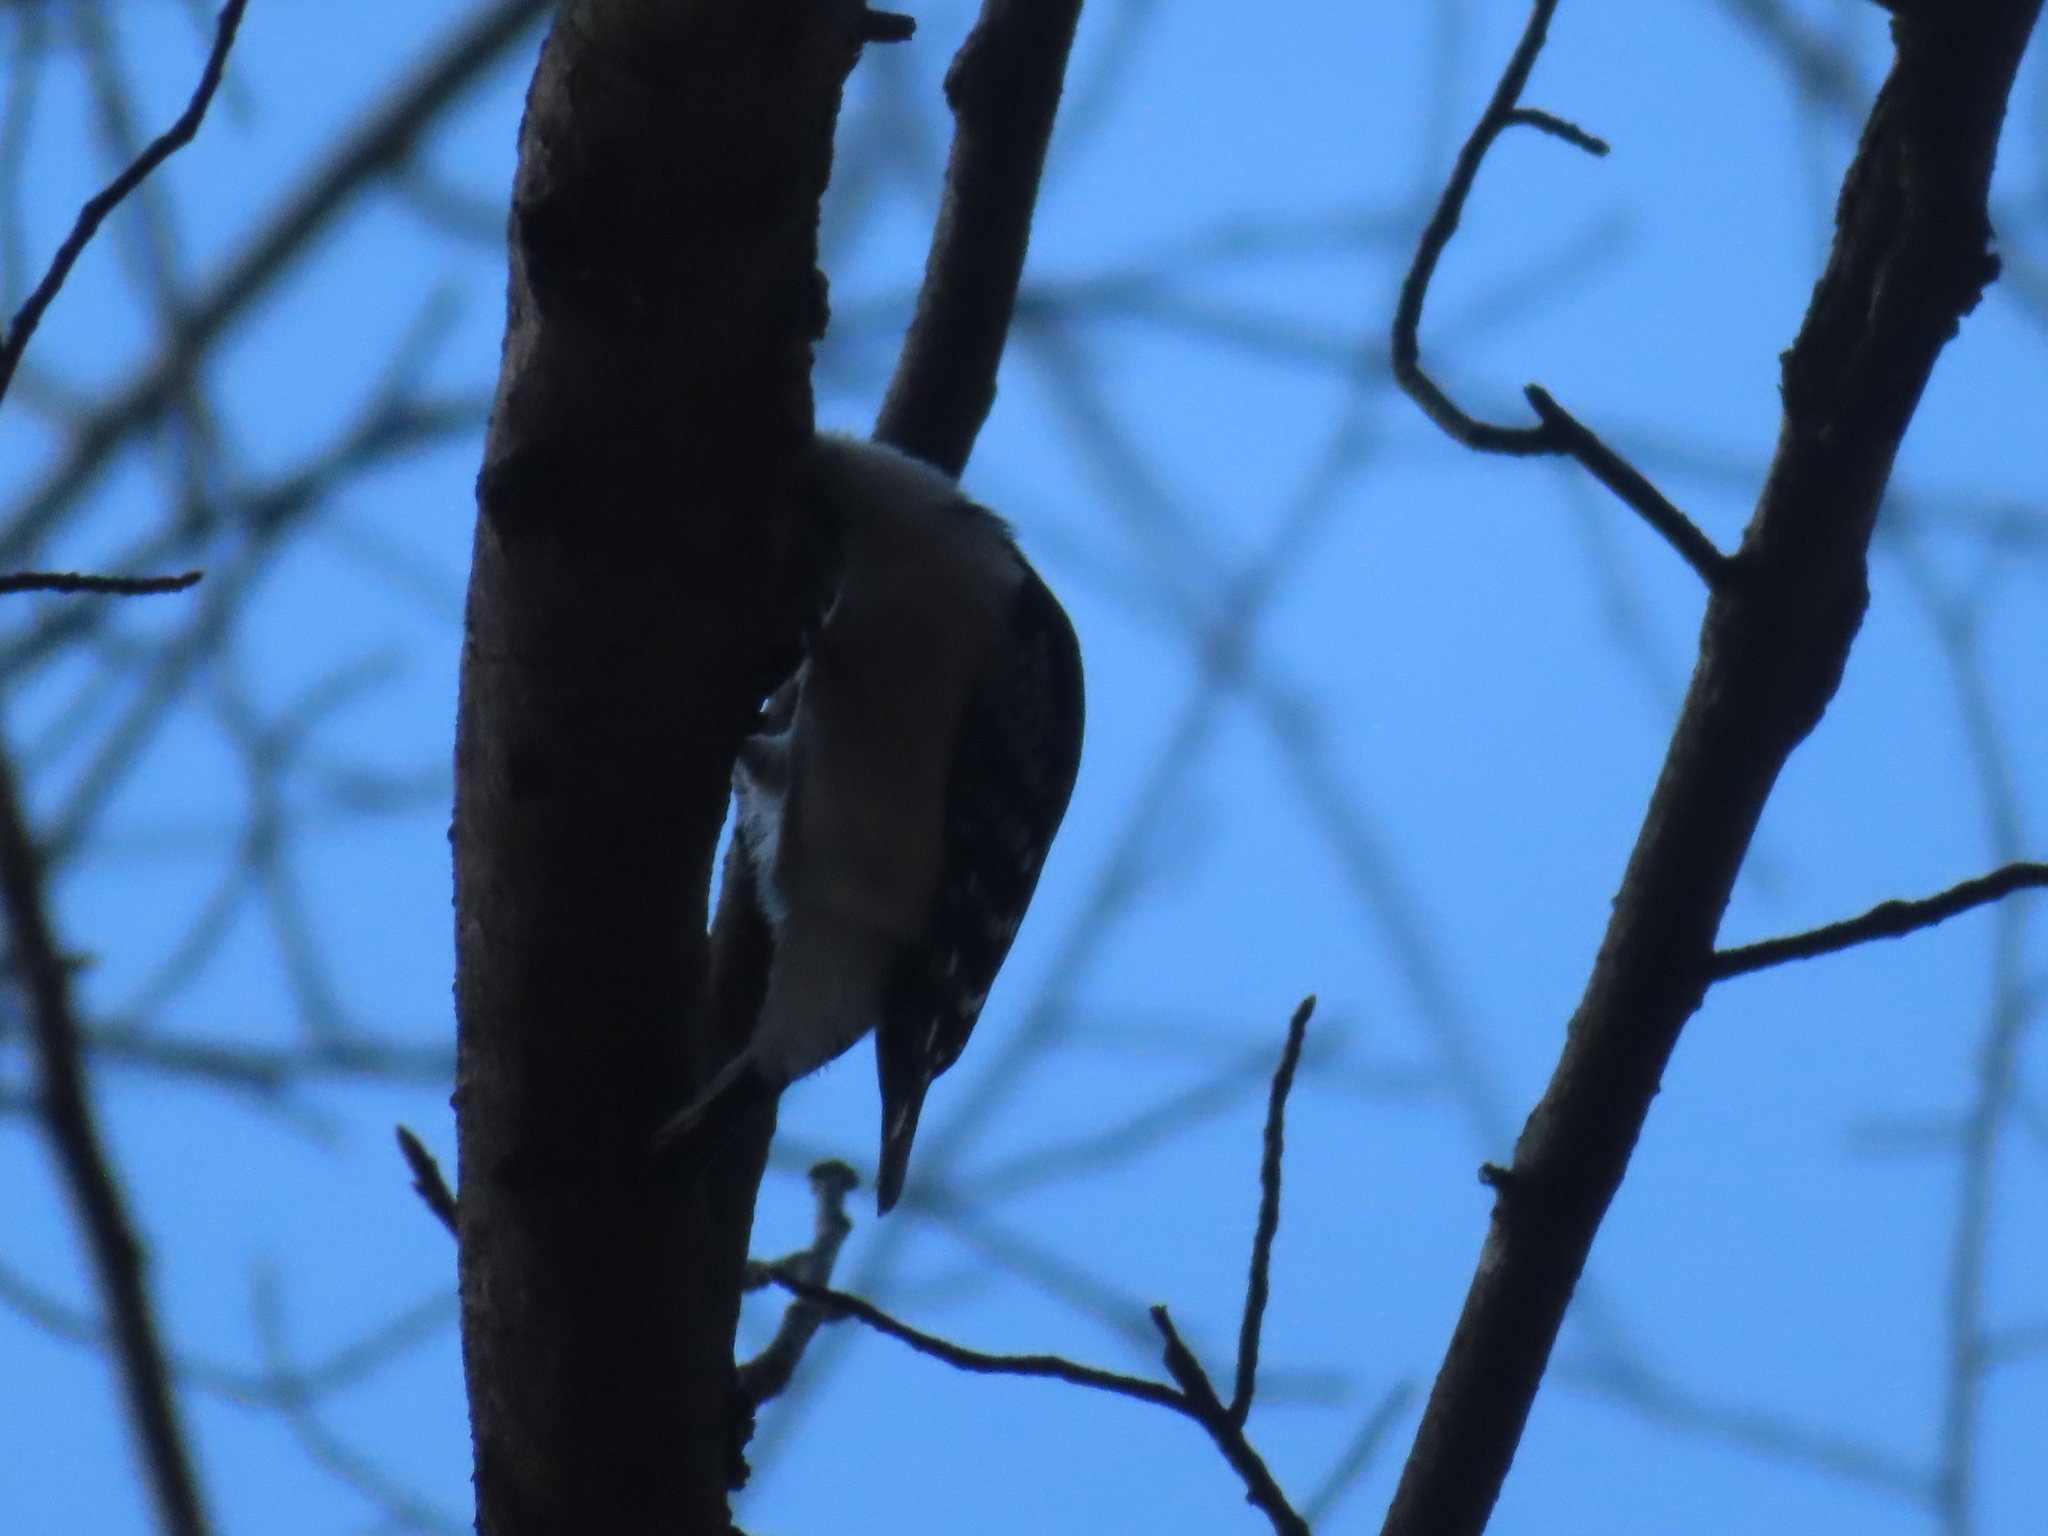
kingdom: Animalia
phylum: Chordata
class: Aves
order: Piciformes
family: Picidae
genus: Dryobates
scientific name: Dryobates pubescens
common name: Downy woodpecker
